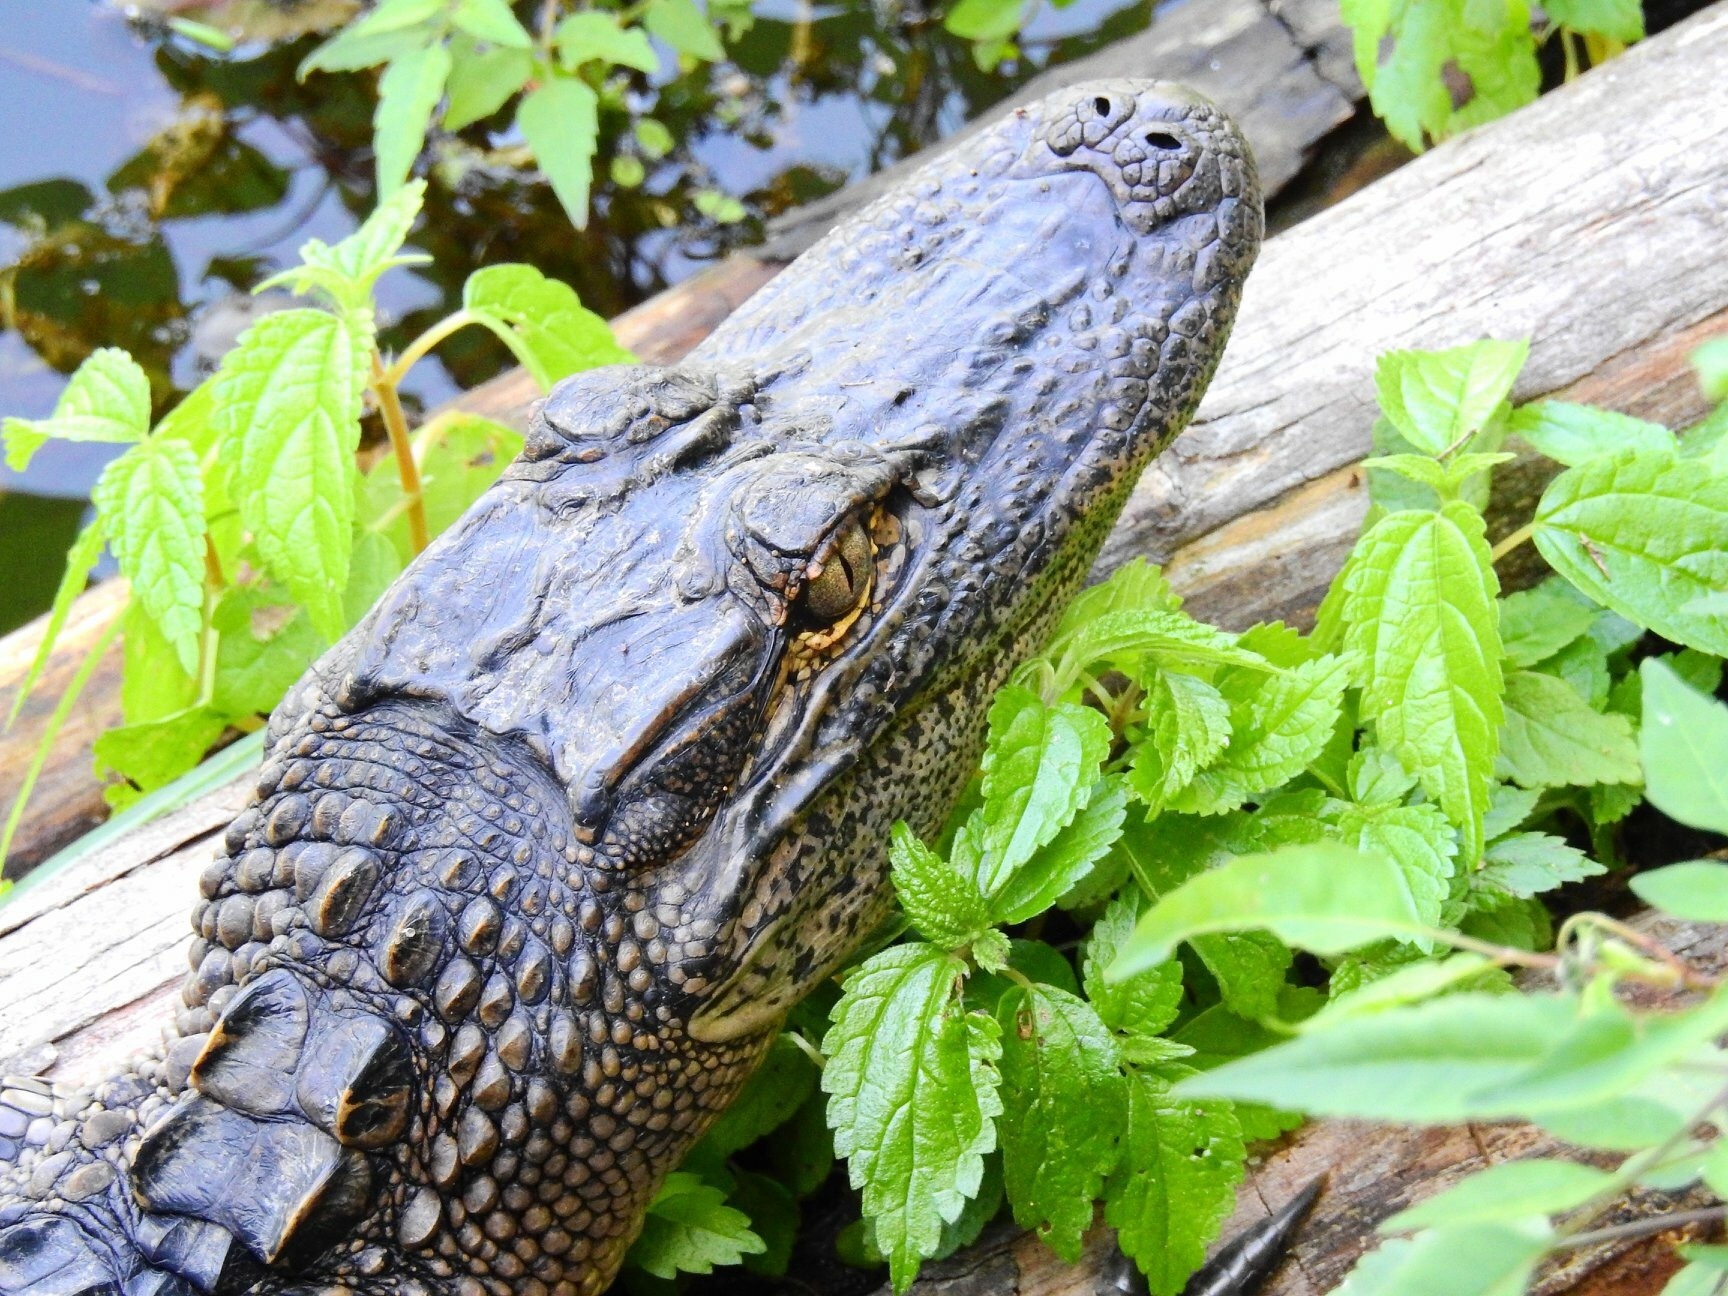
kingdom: Animalia
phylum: Chordata
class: Crocodylia
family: Alligatoridae
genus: Alligator
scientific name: Alligator mississippiensis
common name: American alligator
